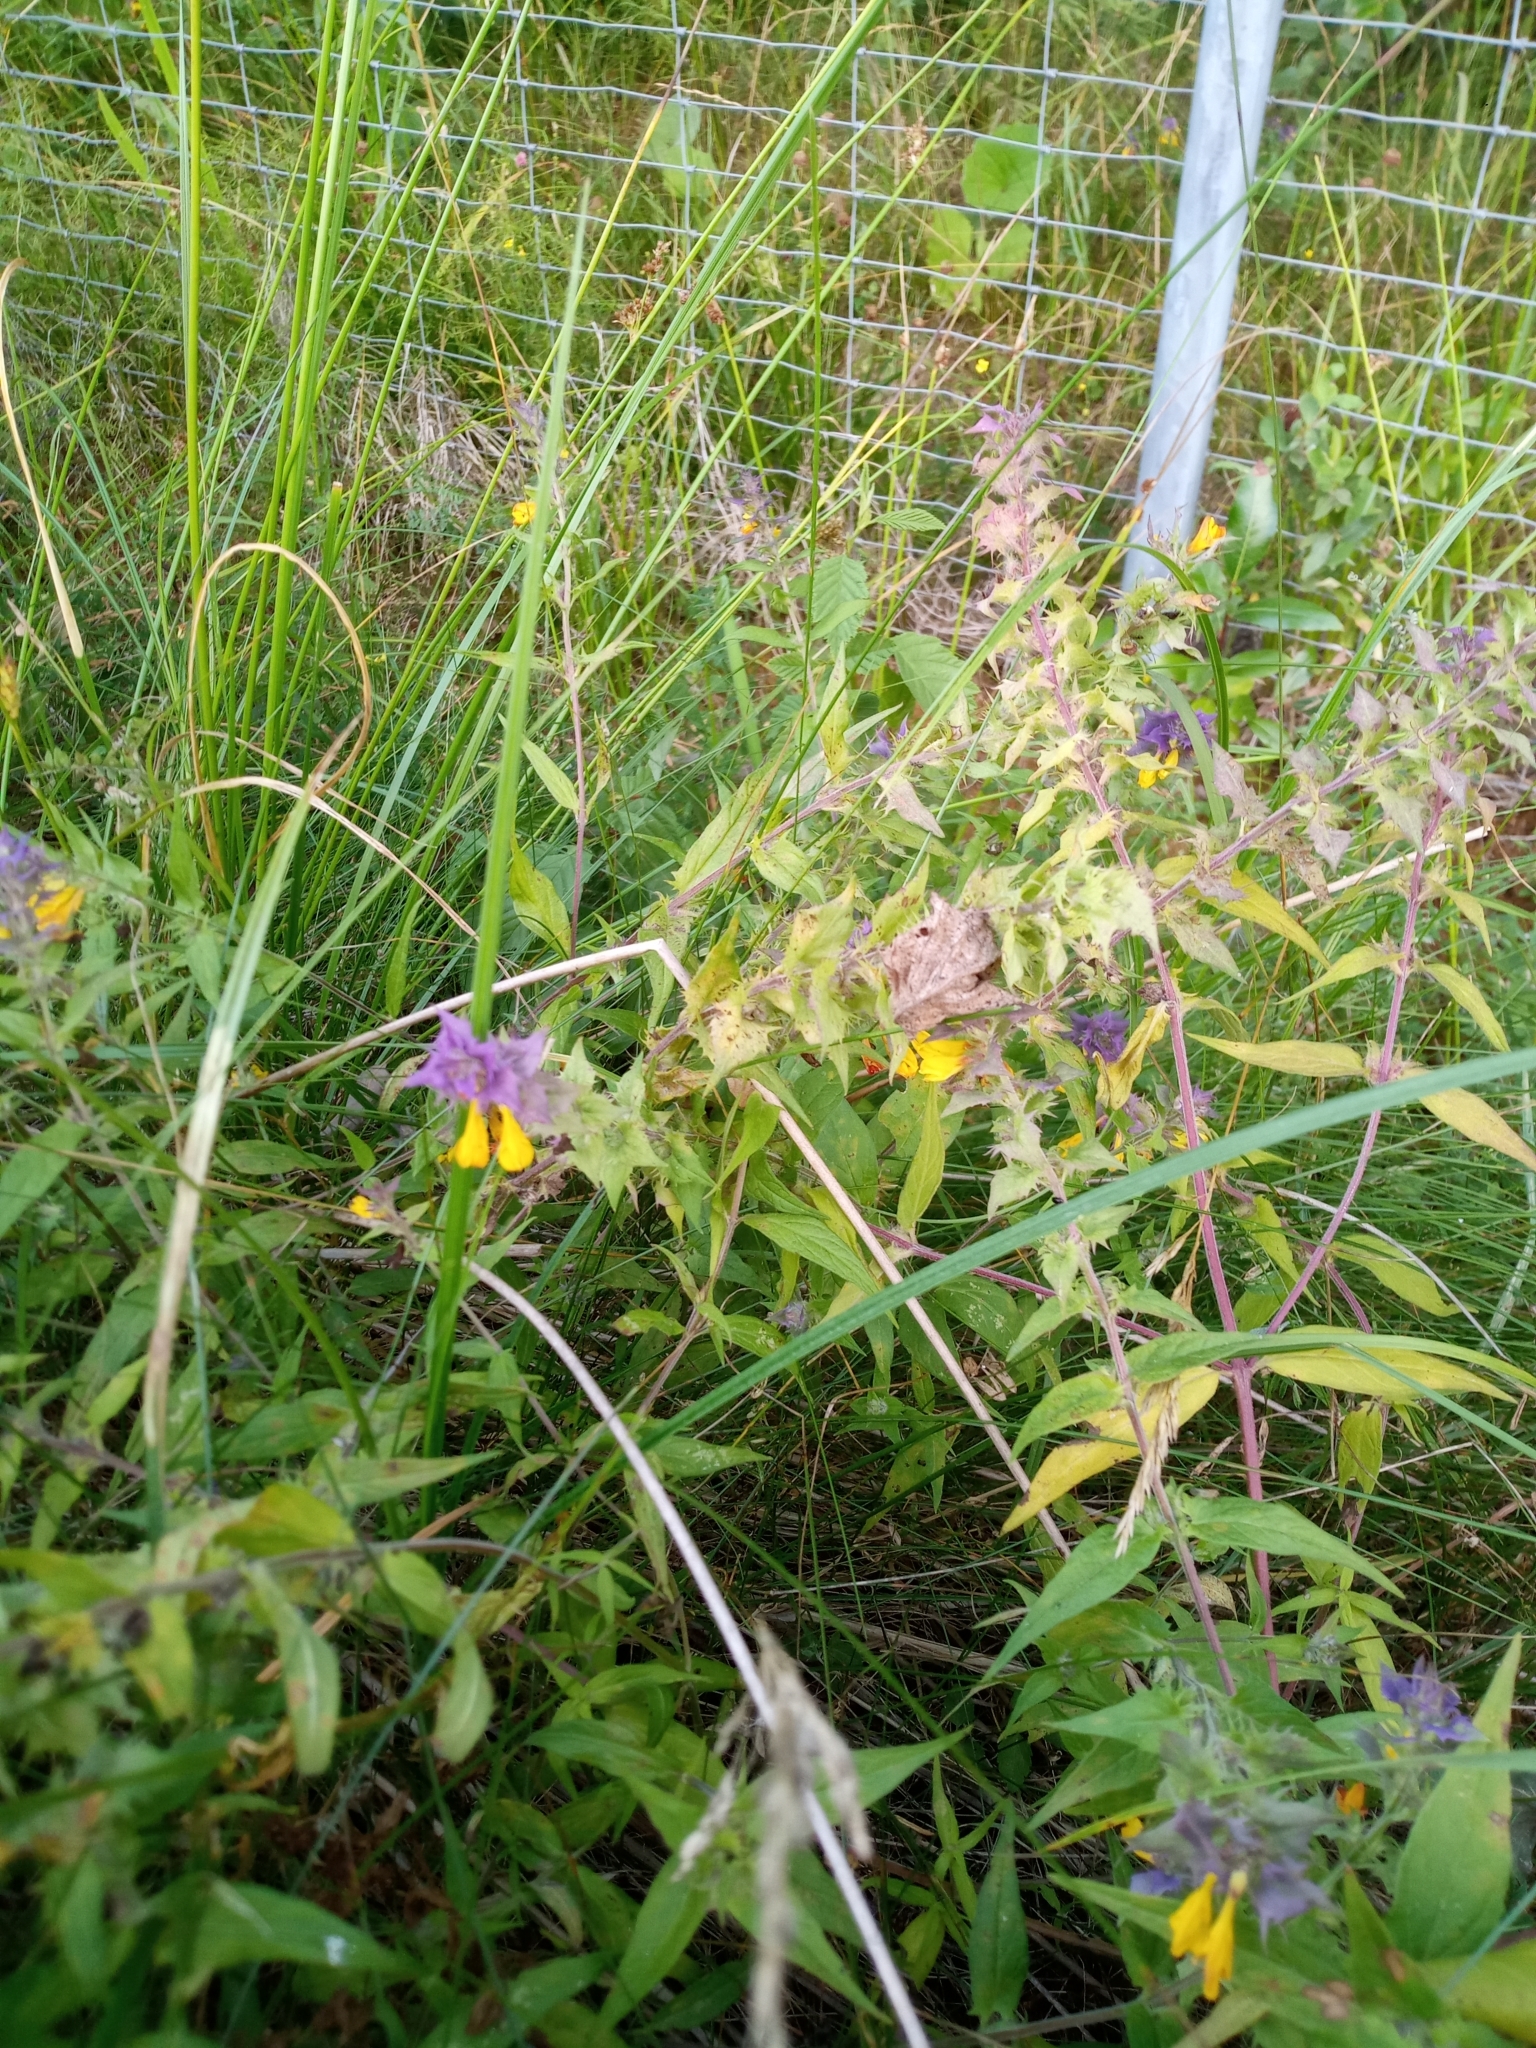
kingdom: Plantae
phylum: Tracheophyta
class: Magnoliopsida
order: Lamiales
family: Orobanchaceae
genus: Melampyrum
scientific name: Melampyrum nemorosum
